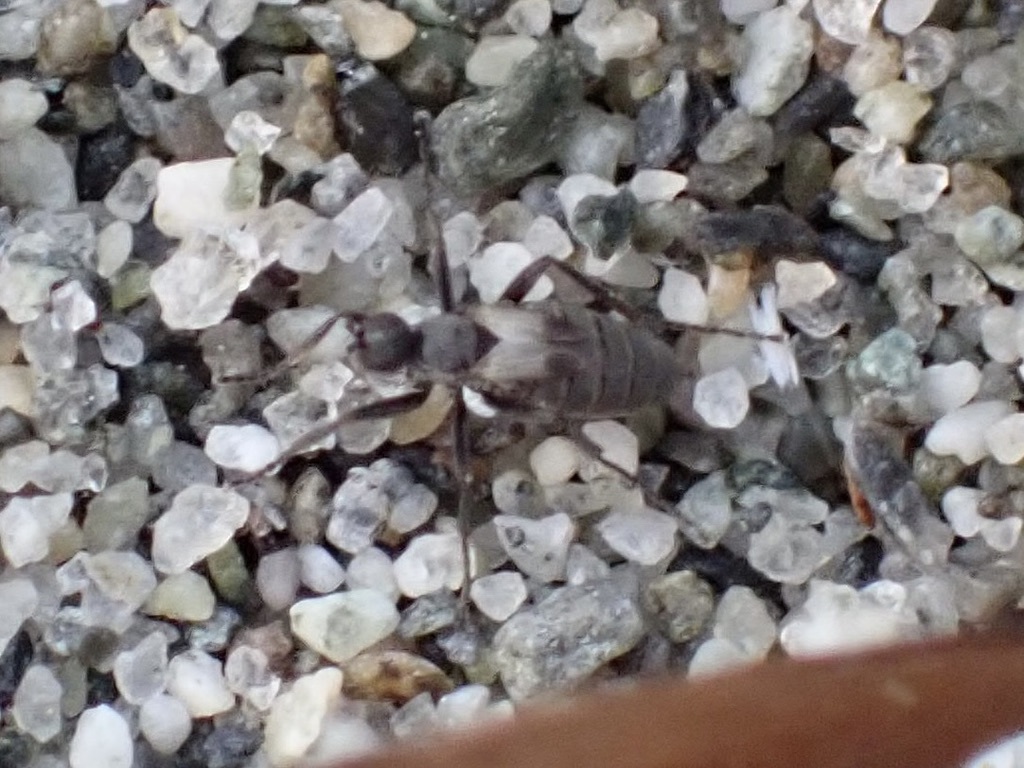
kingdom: Animalia
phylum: Arthropoda
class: Insecta
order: Diptera
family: Hybotidae
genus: Chersodromia
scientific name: Chersodromia parallela
